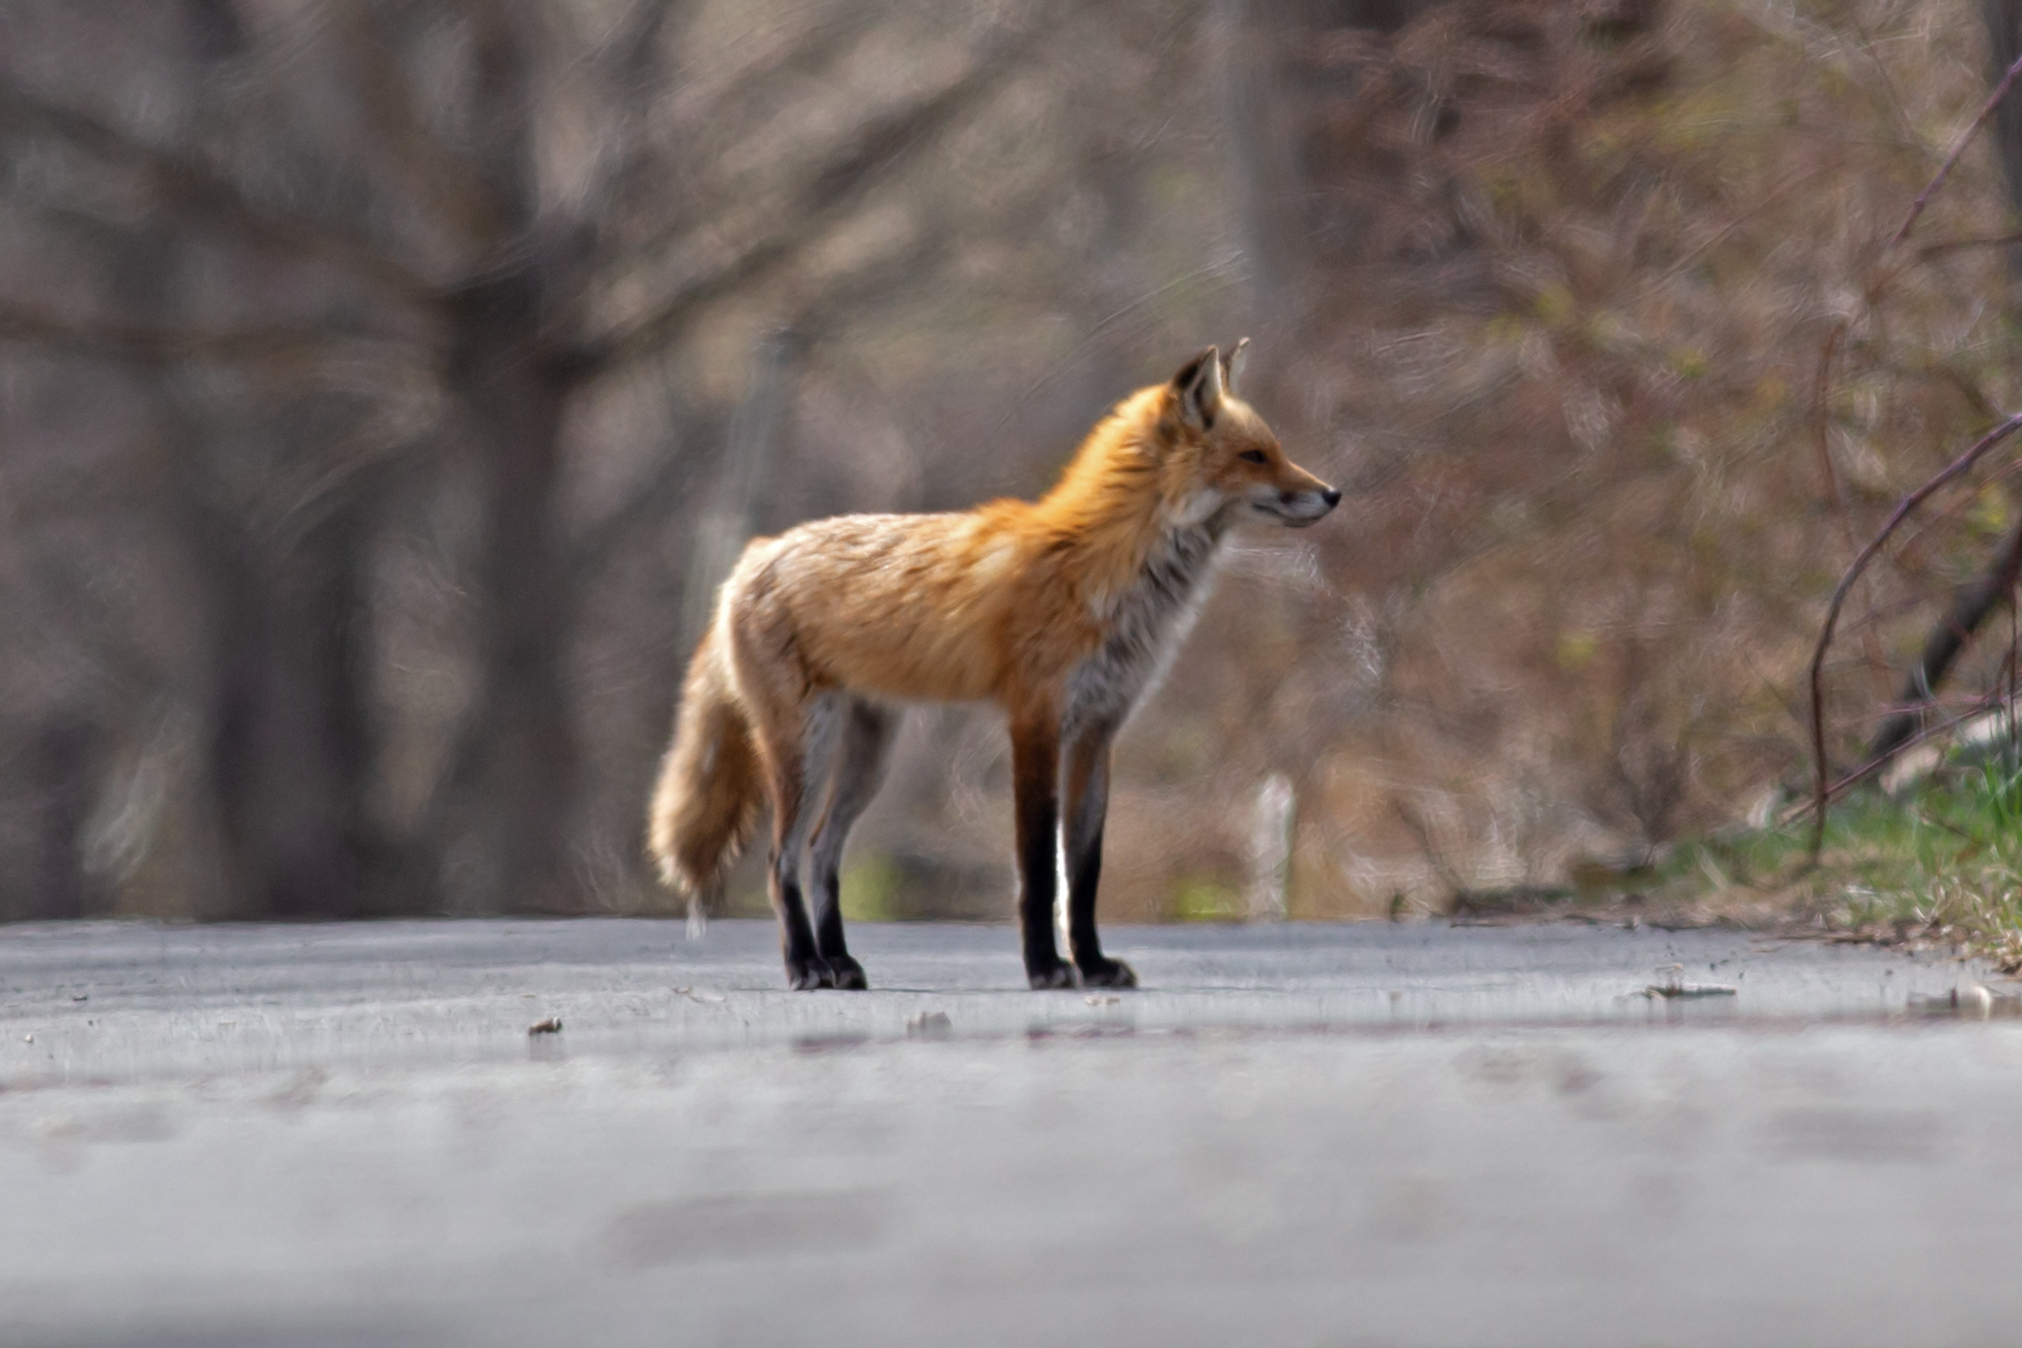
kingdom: Animalia
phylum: Chordata
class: Mammalia
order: Carnivora
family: Canidae
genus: Vulpes
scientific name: Vulpes vulpes
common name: Red fox
